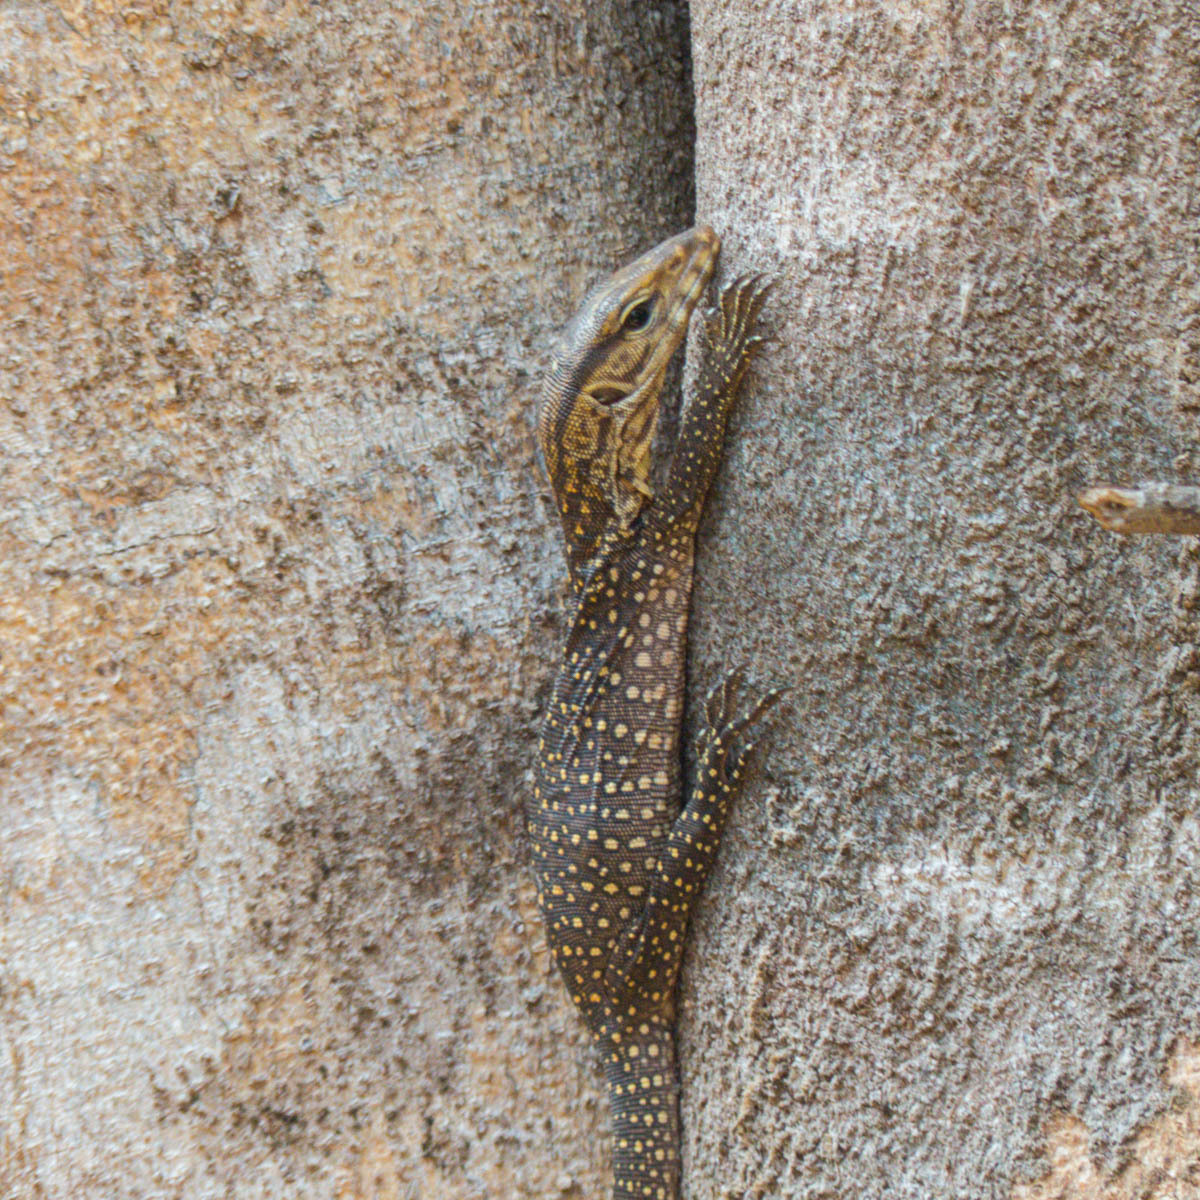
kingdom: Animalia
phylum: Chordata
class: Squamata
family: Varanidae
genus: Varanus
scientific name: Varanus nebulosus
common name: Clouded monitor
